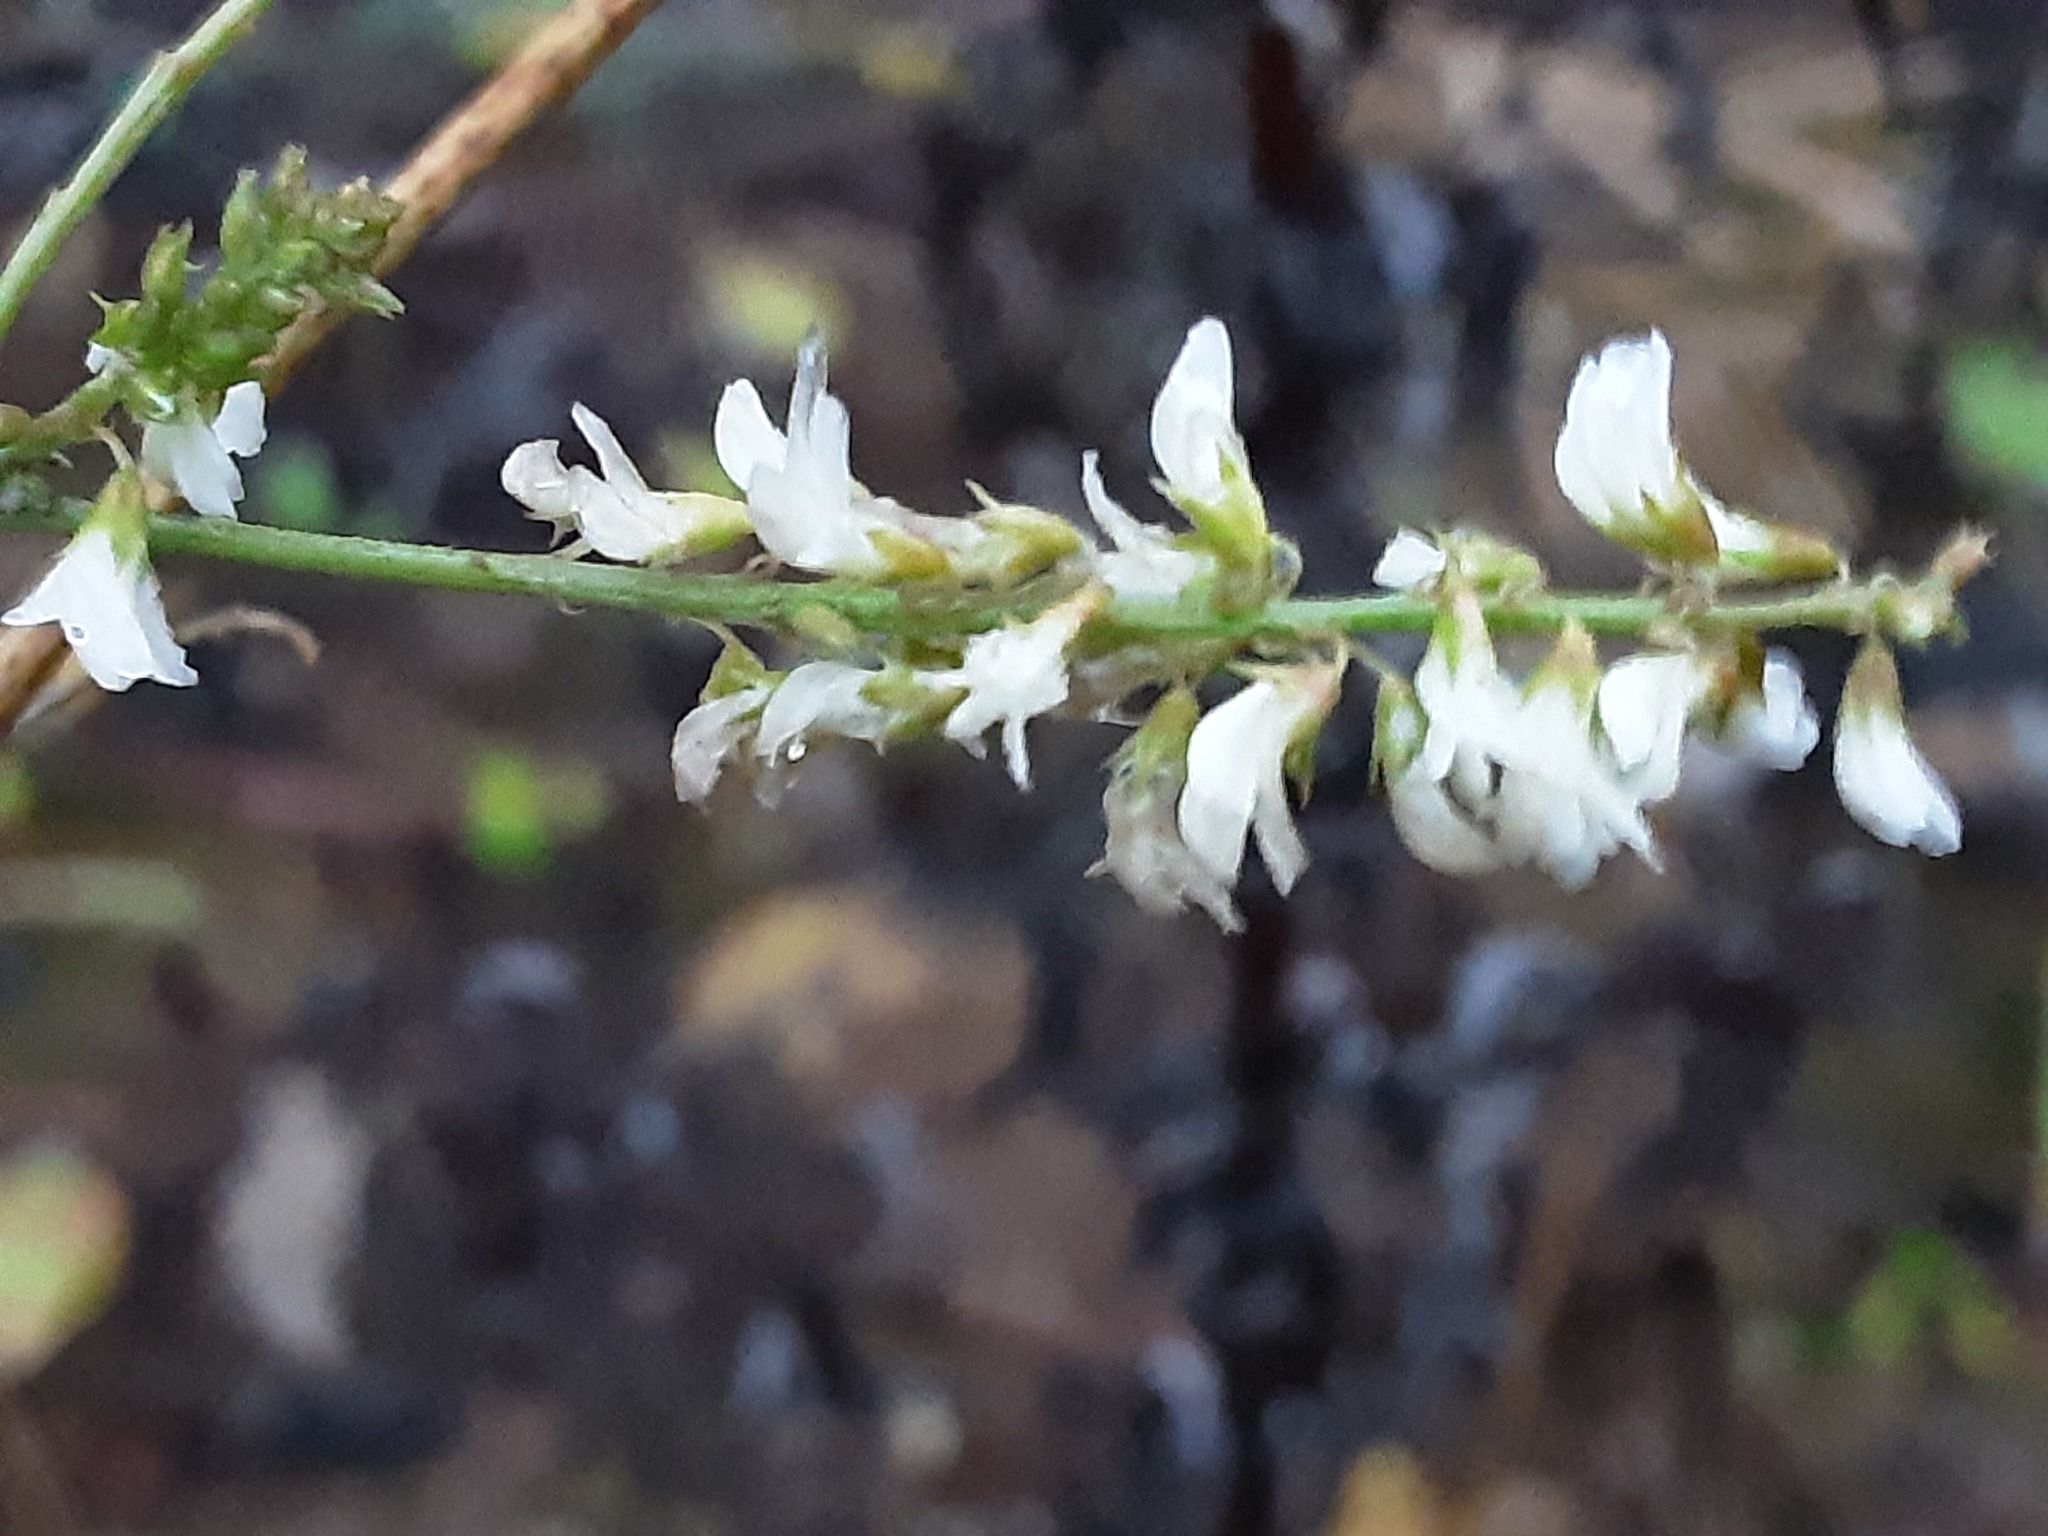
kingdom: Plantae
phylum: Tracheophyta
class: Magnoliopsida
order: Fabales
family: Fabaceae
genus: Melilotus
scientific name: Melilotus albus
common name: White melilot
